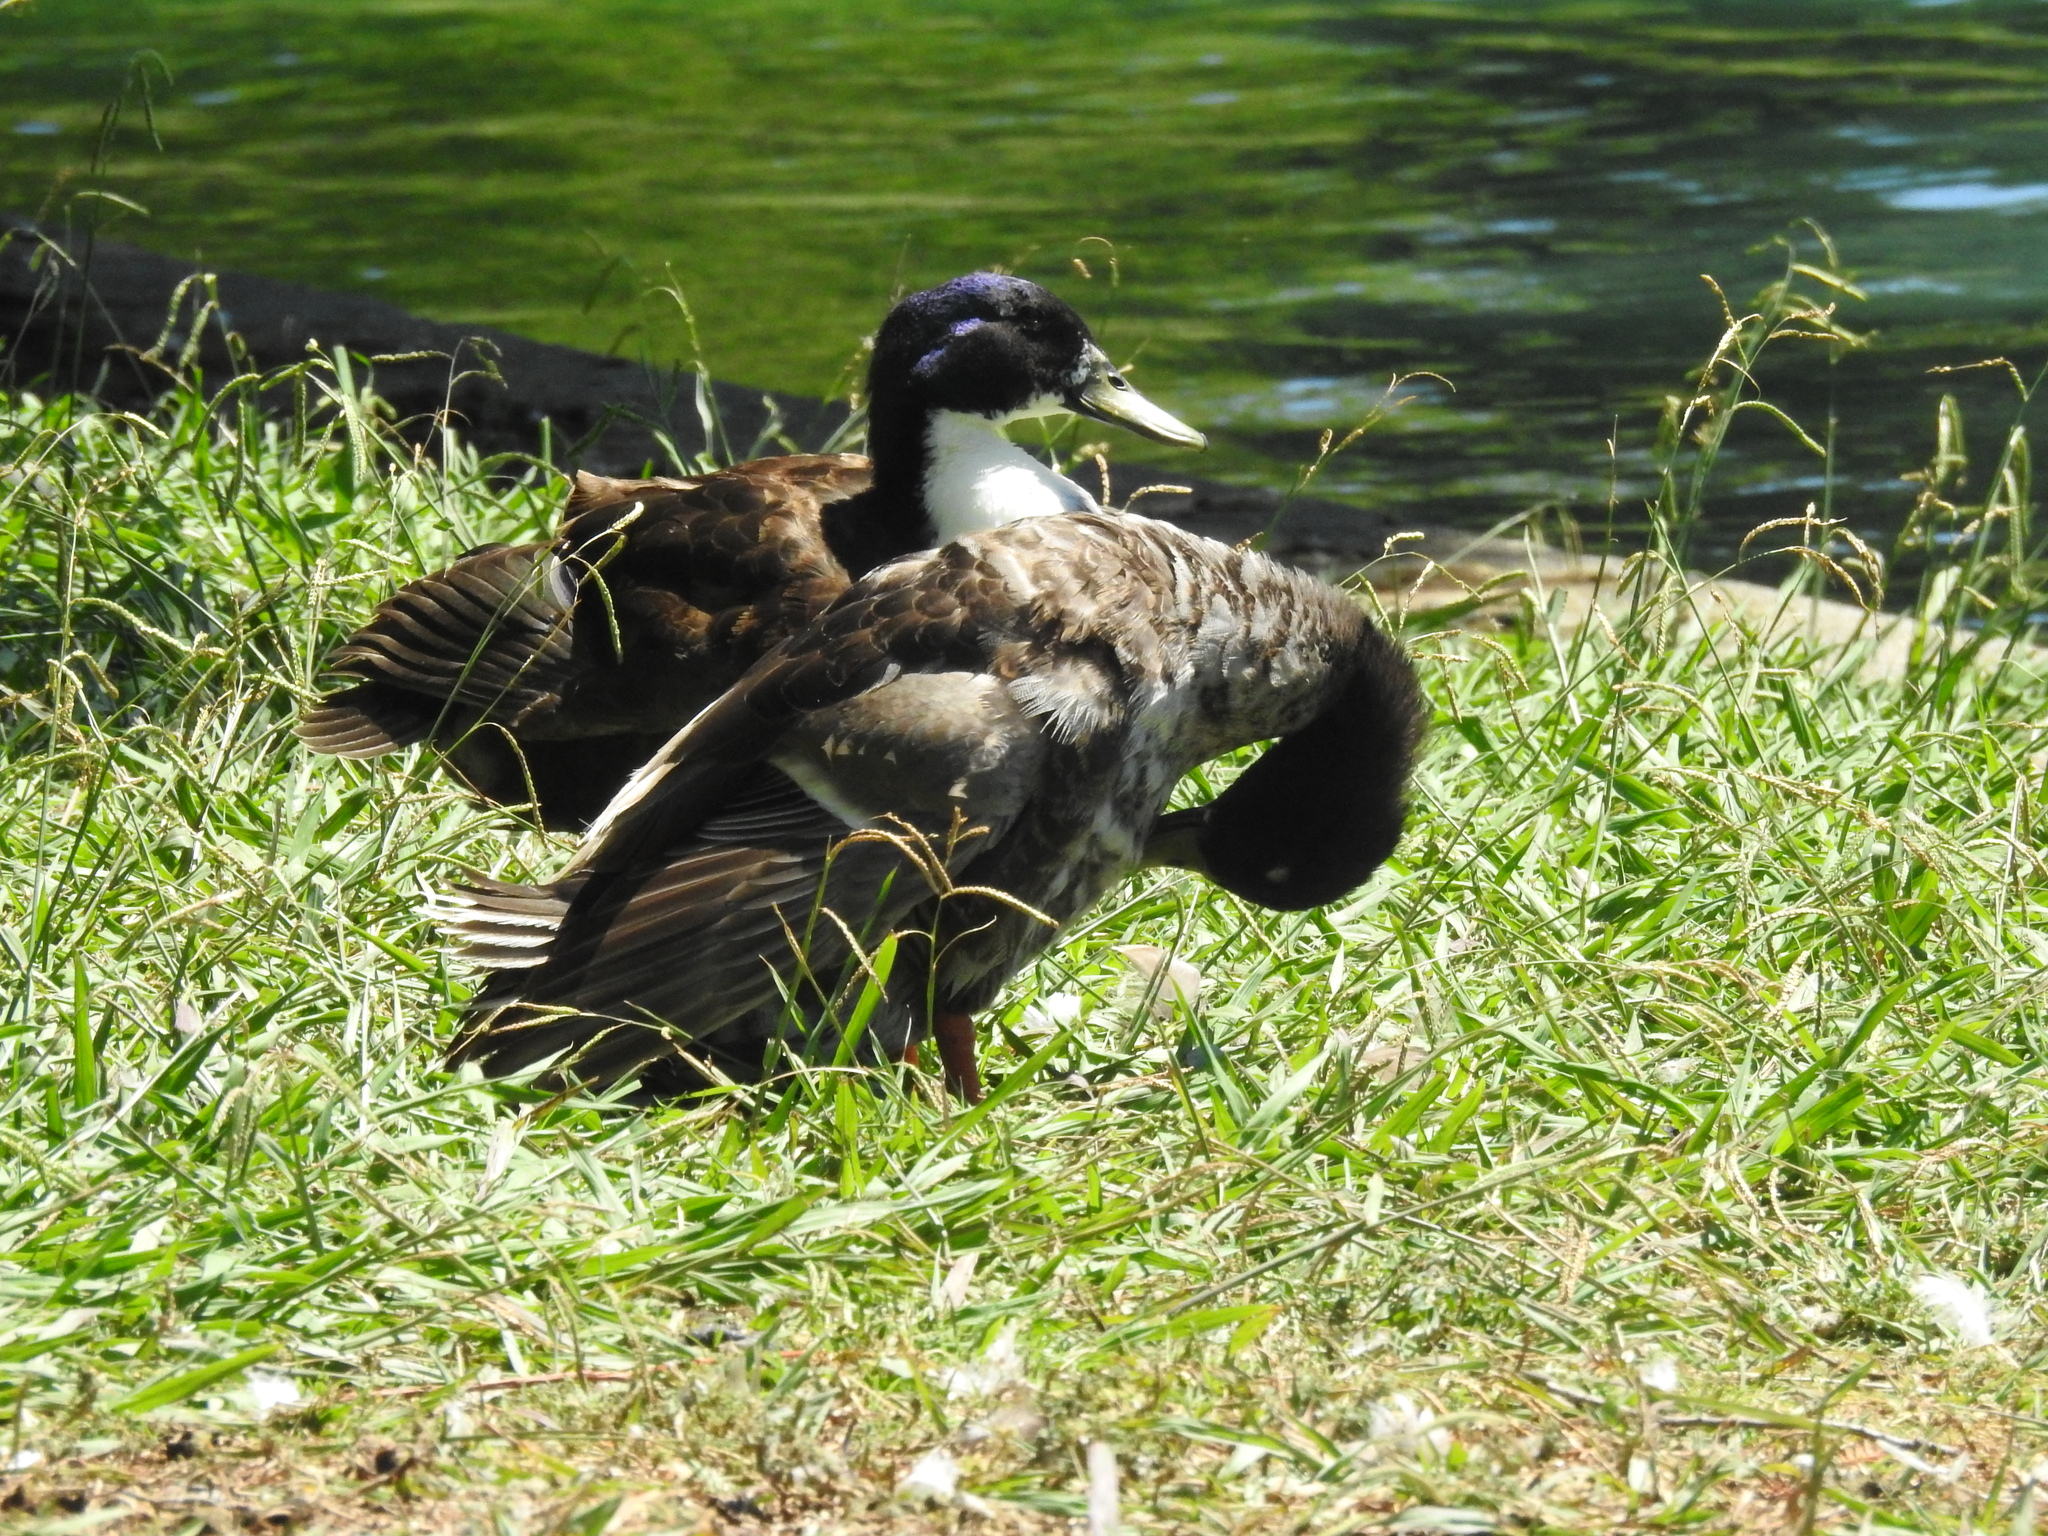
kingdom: Animalia
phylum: Chordata
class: Aves
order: Anseriformes
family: Anatidae
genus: Anas
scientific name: Anas platyrhynchos
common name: Mallard
